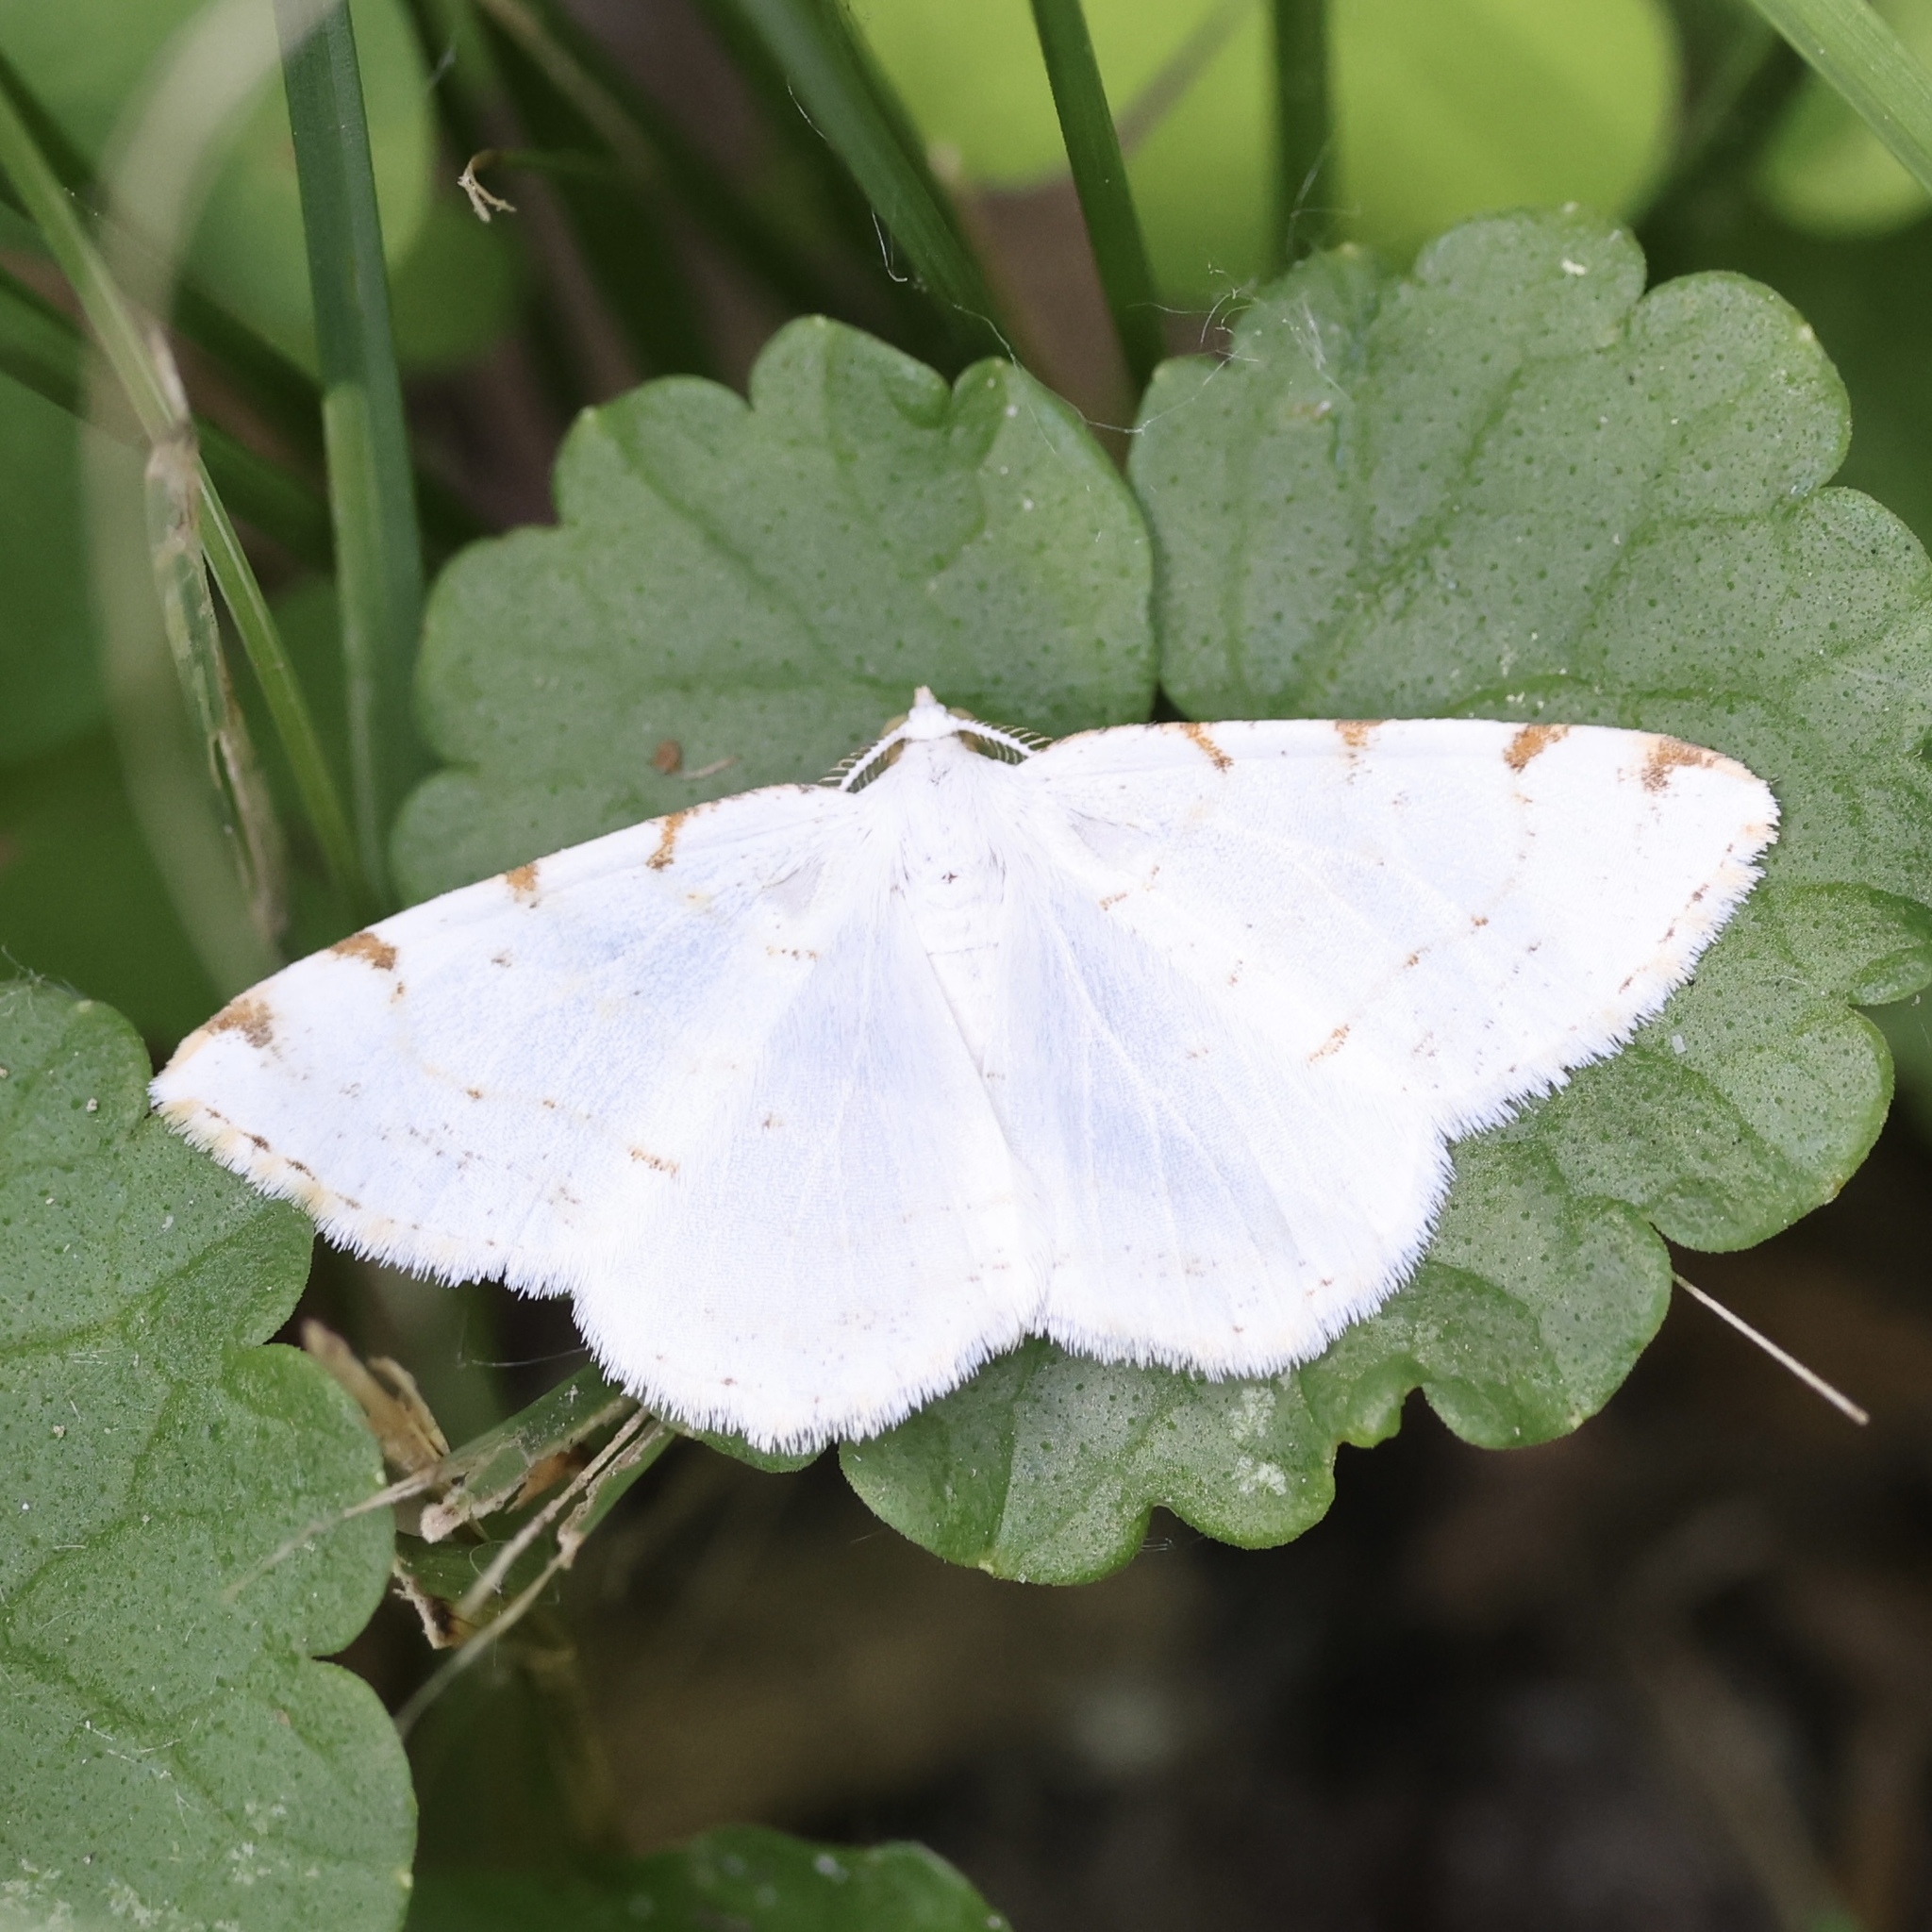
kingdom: Animalia
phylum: Arthropoda
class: Insecta
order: Lepidoptera
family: Geometridae
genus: Macaria
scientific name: Macaria pustularia
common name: Lesser maple spanworm moth
